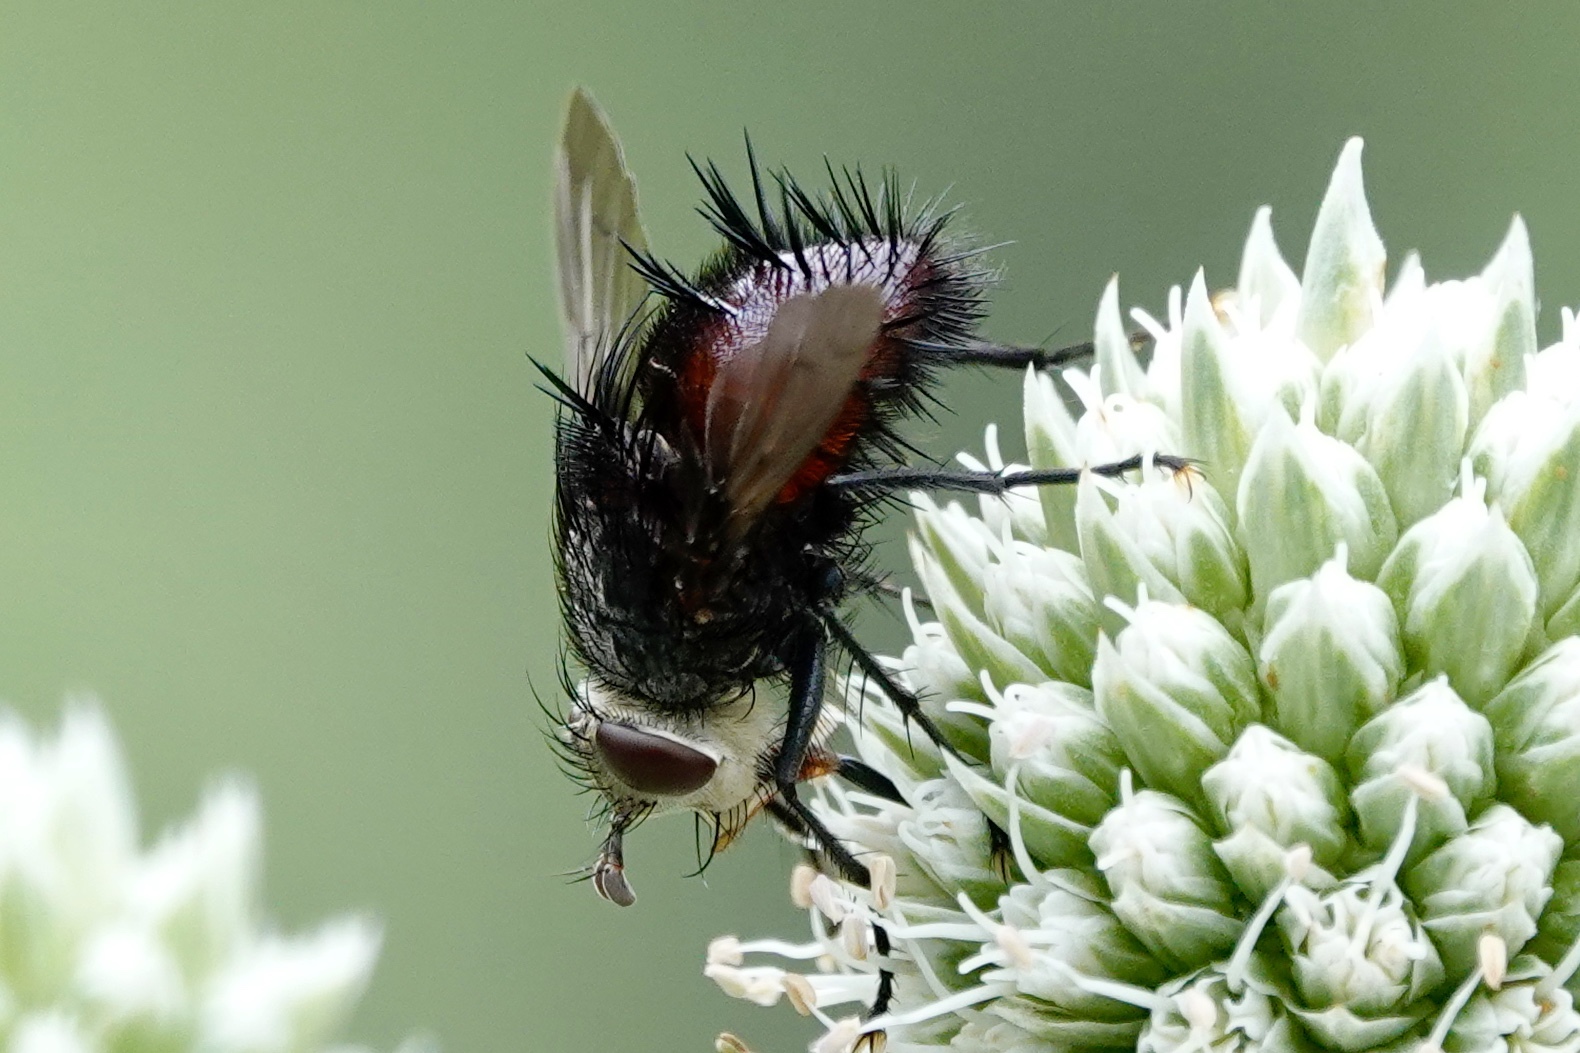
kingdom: Animalia
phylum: Arthropoda
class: Insecta
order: Diptera
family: Tachinidae
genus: Juriniopsis
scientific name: Juriniopsis adusta
